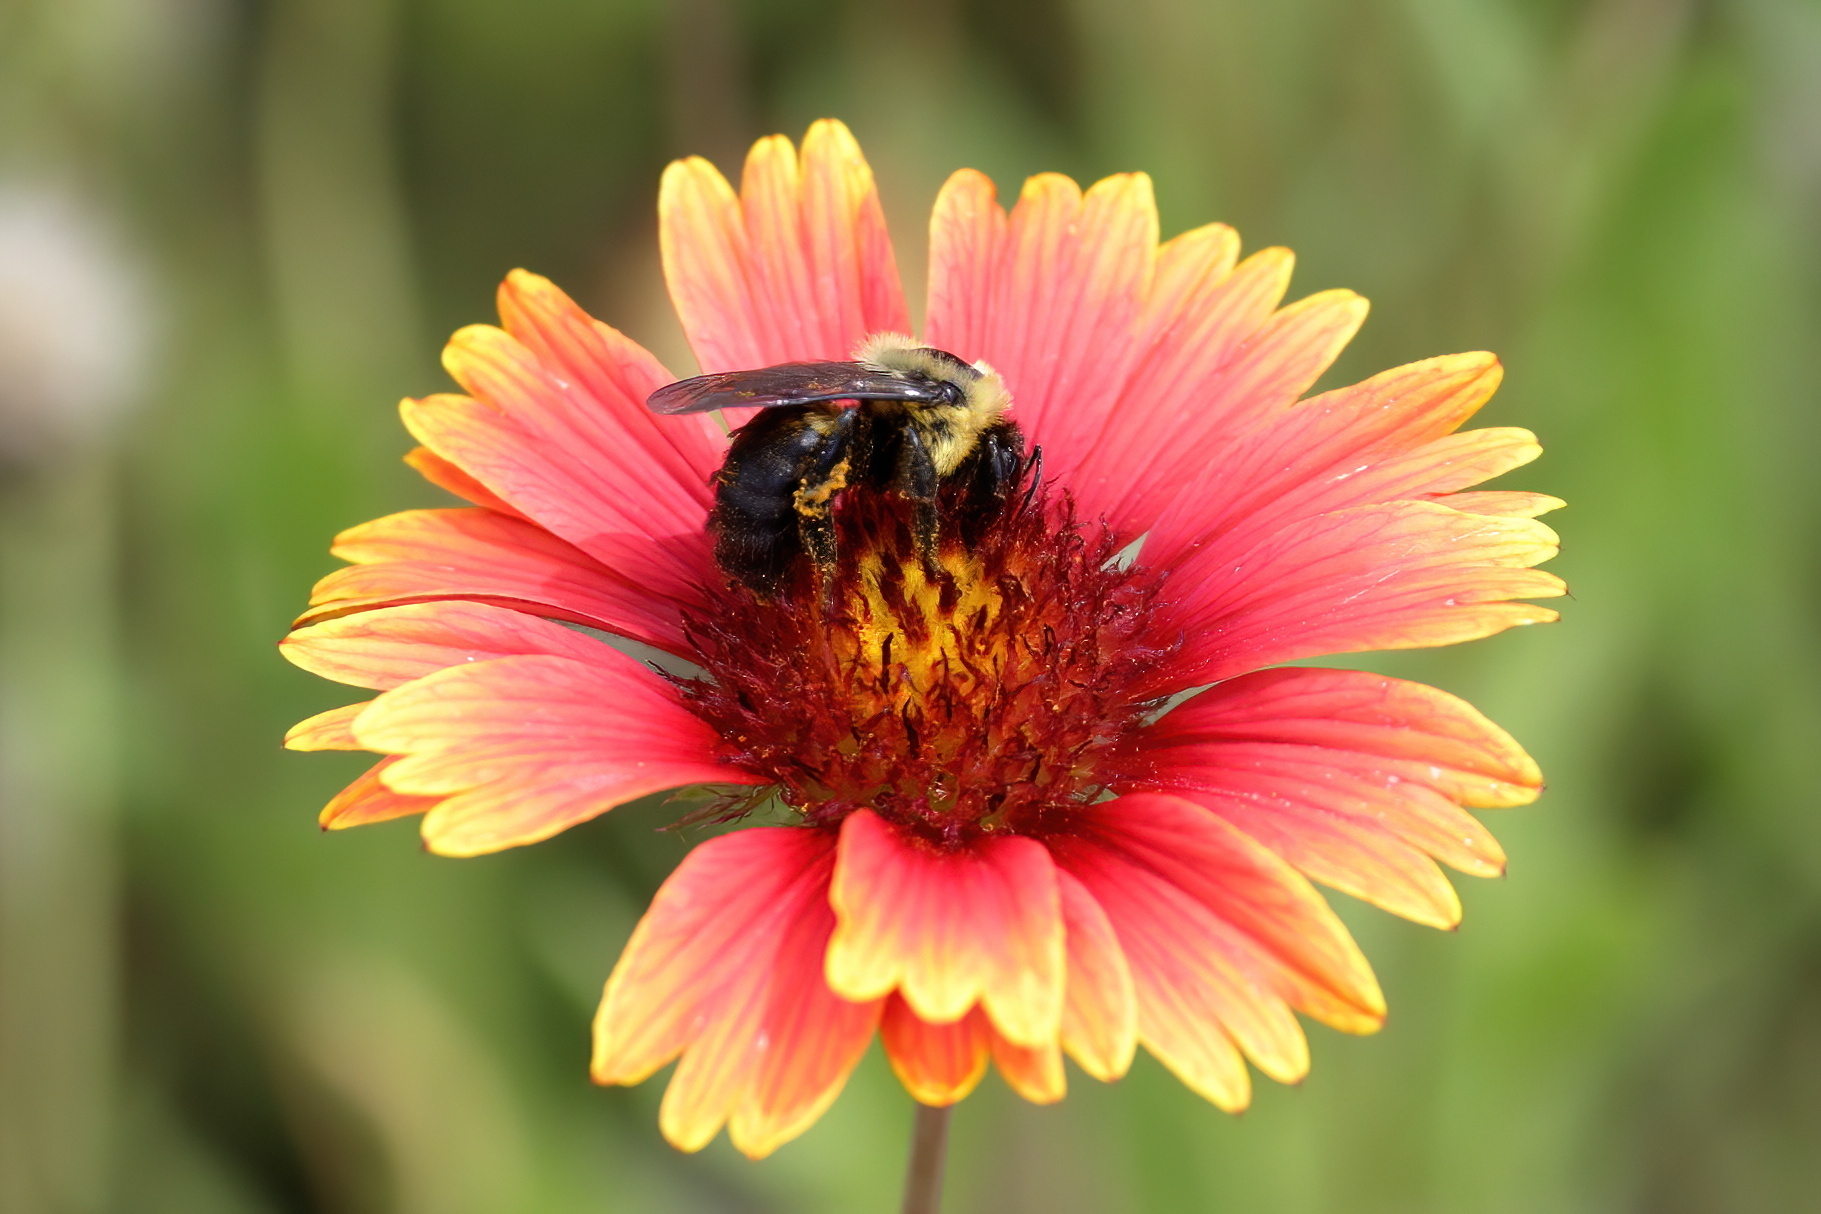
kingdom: Animalia
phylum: Arthropoda
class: Insecta
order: Hymenoptera
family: Apidae
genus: Bombus
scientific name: Bombus griseocollis
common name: Brown-belted bumble bee
